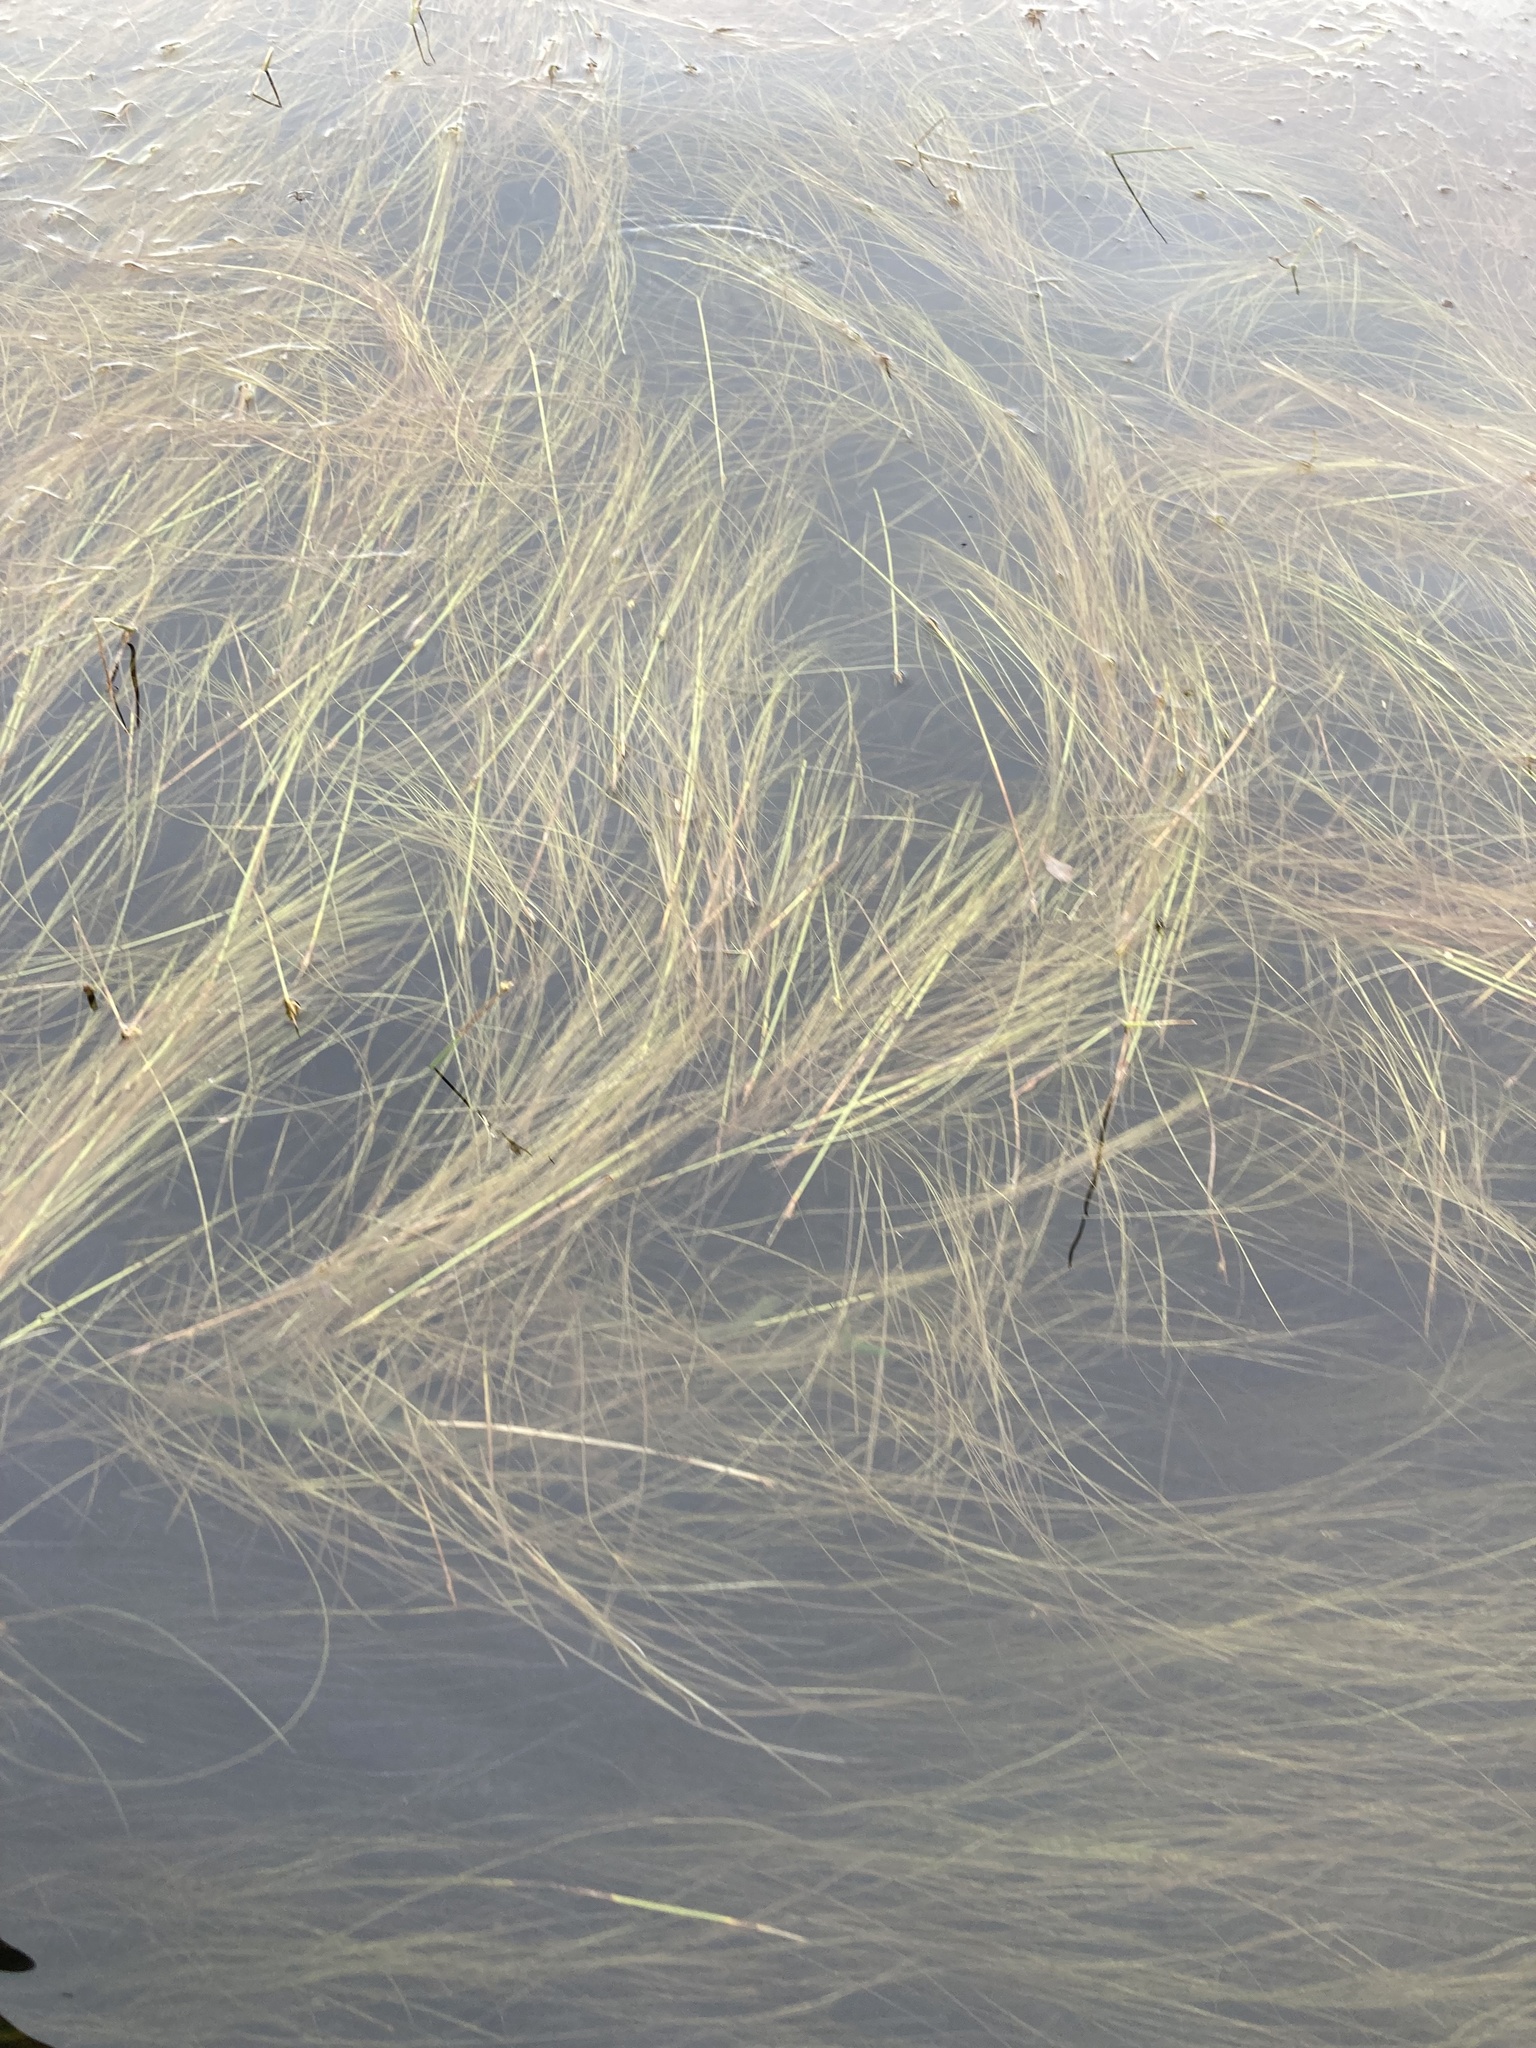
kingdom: Plantae
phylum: Tracheophyta
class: Liliopsida
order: Poales
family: Cyperaceae
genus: Schoenoplectus
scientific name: Schoenoplectus subterminalis
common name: Swaying bulrush
